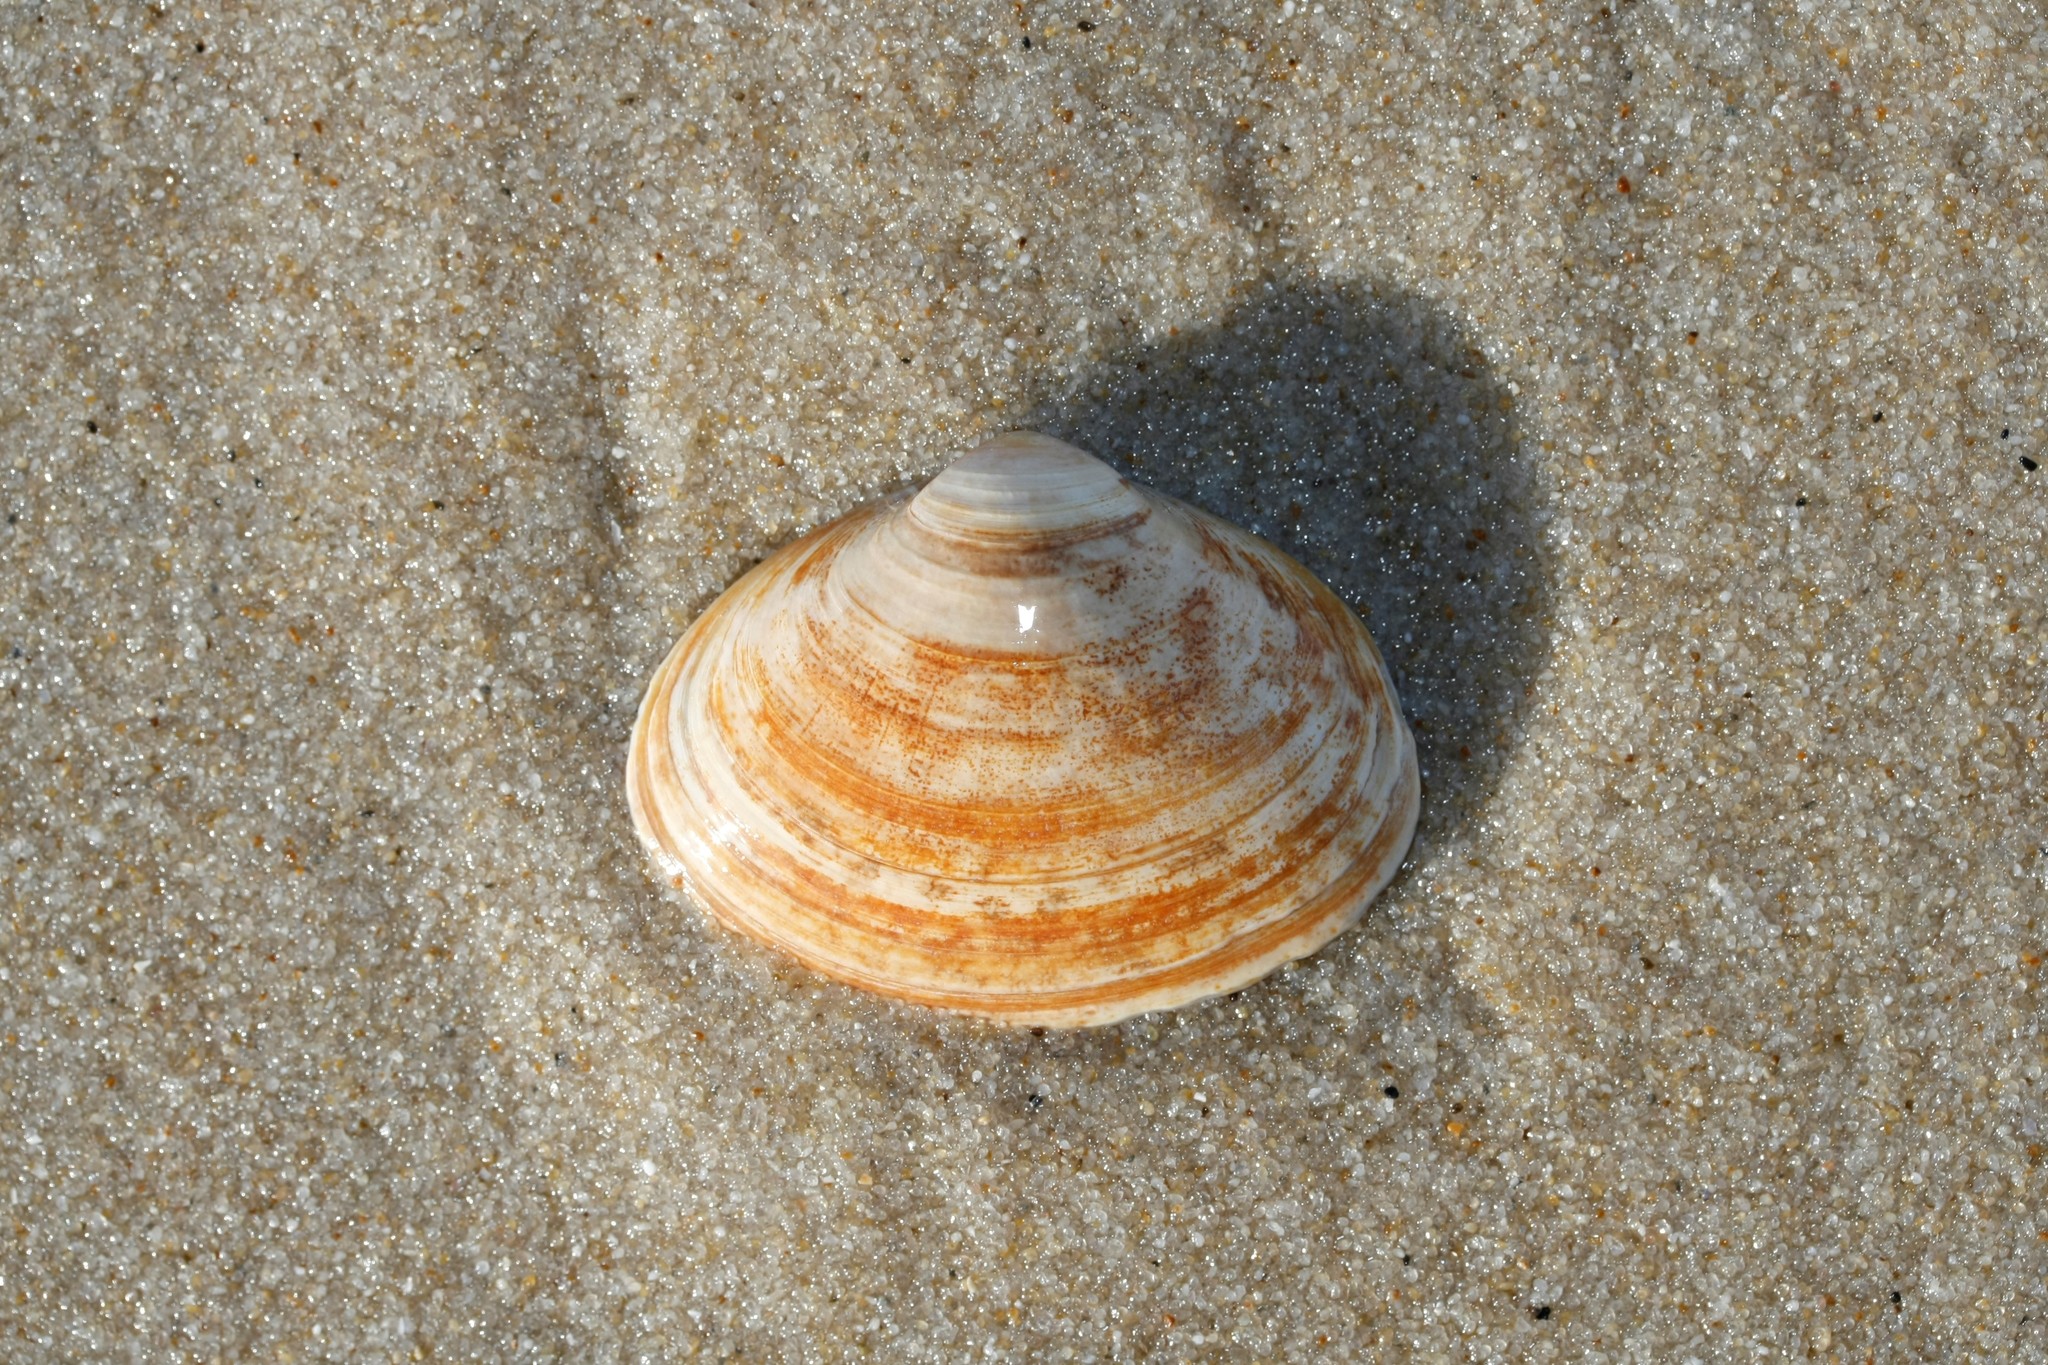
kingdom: Animalia
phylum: Mollusca
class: Bivalvia
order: Venerida
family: Mactridae
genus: Spisula
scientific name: Spisula solida
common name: Thick trough shell
